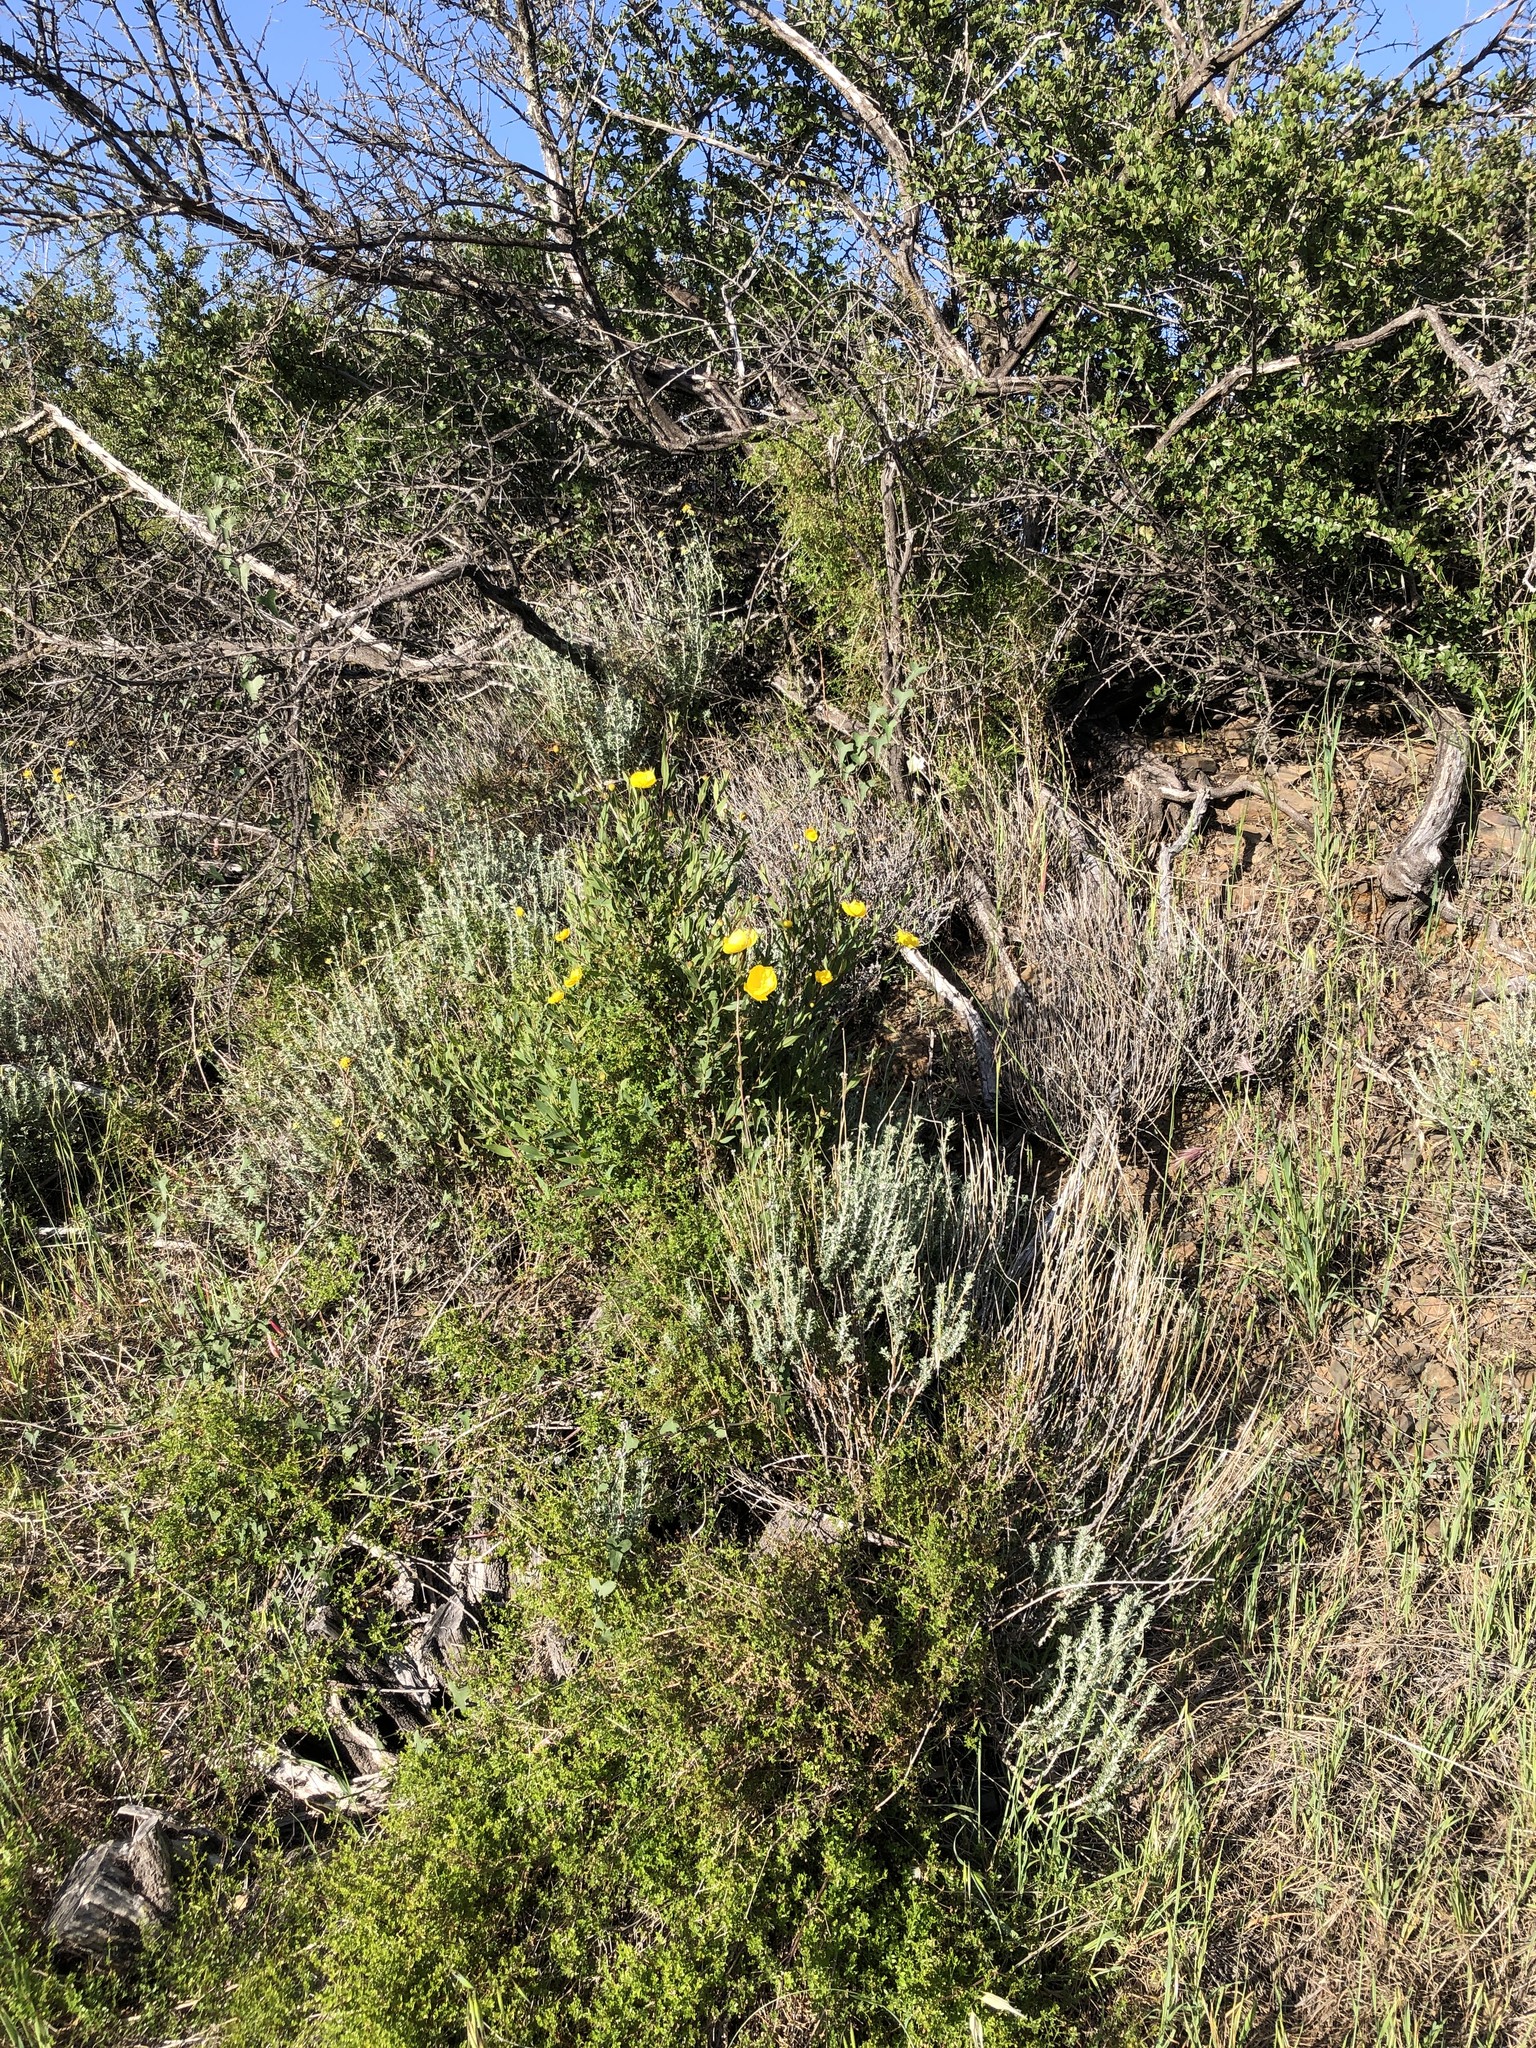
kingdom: Plantae
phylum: Tracheophyta
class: Magnoliopsida
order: Asterales
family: Asteraceae
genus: Eriophyllum
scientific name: Eriophyllum confertiflorum
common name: Golden-yarrow
